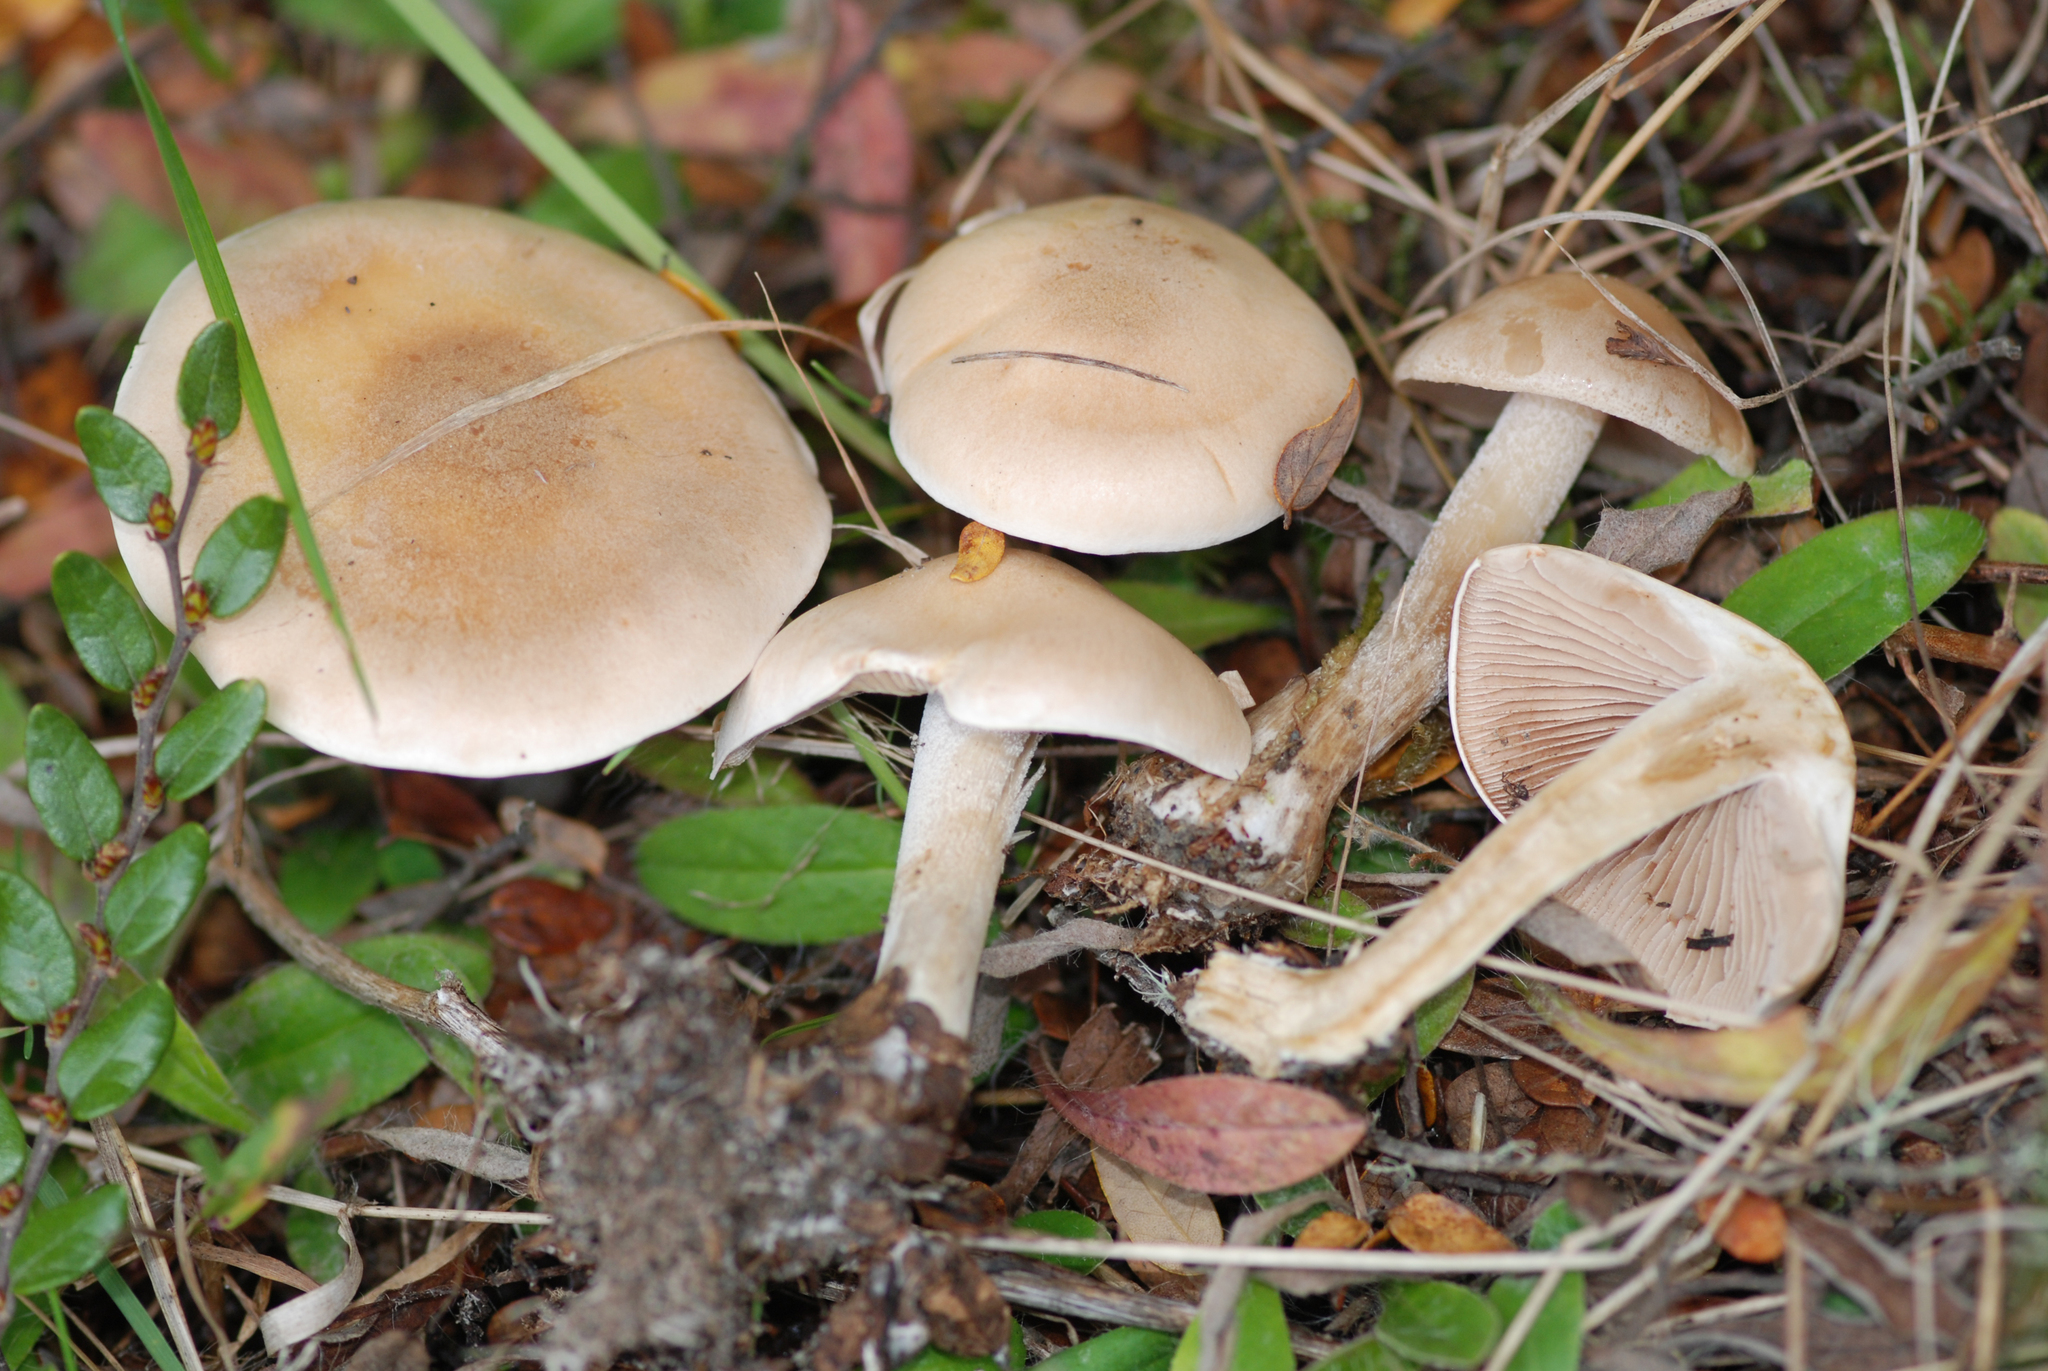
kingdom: Fungi
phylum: Basidiomycota
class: Agaricomycetes
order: Agaricales
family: Hymenogastraceae
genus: Hebeloma
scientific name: Hebeloma mesophaeum
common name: Veiled poisonpie
